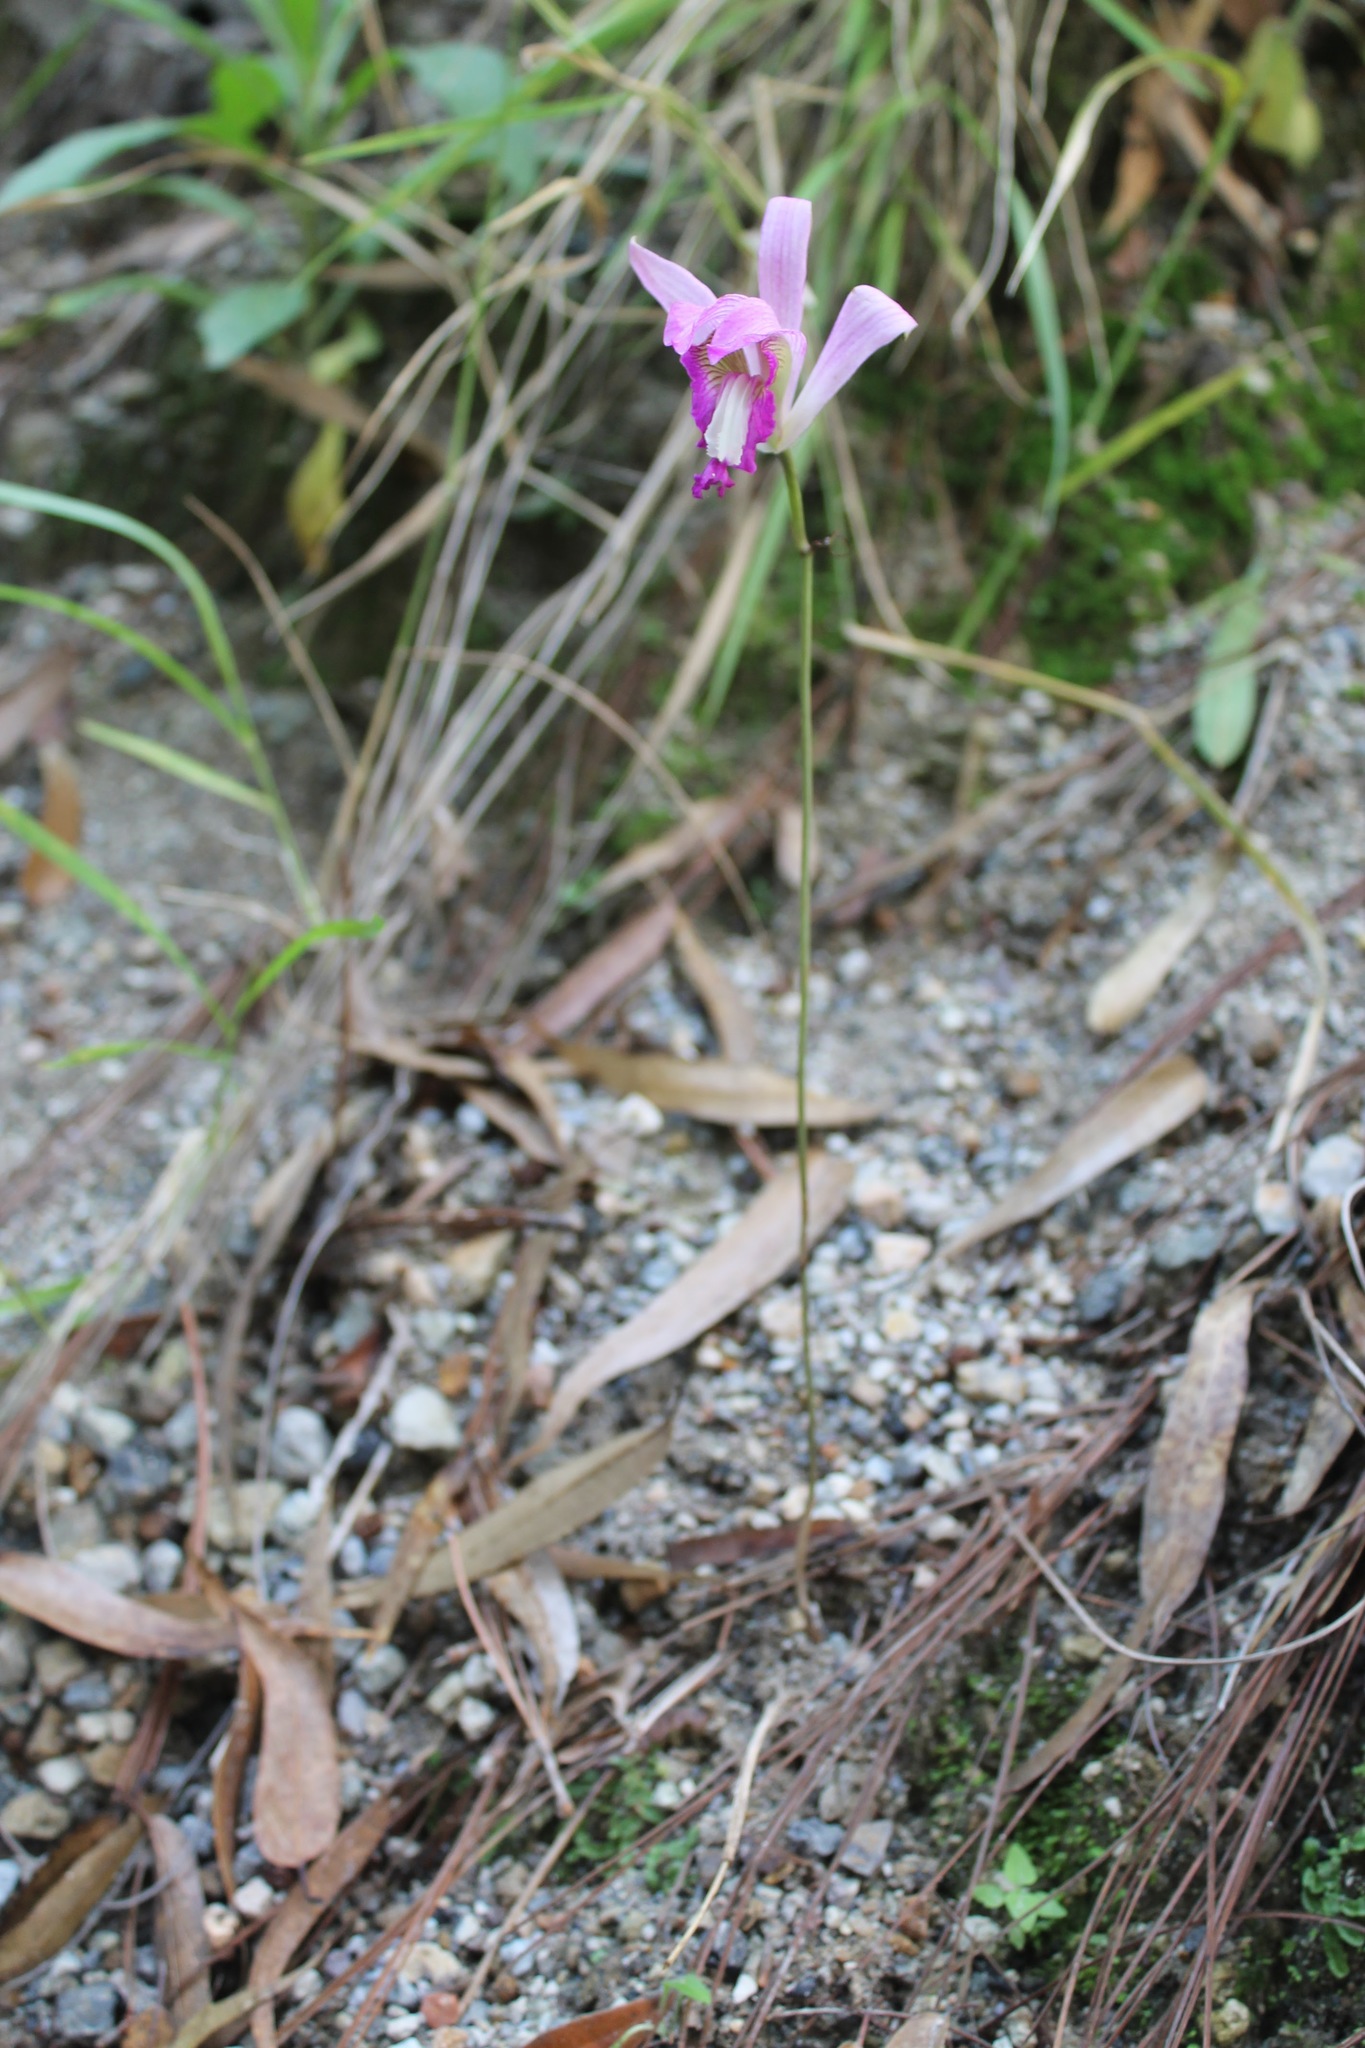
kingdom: Plantae
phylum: Tracheophyta
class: Liliopsida
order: Asparagales
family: Orchidaceae
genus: Bletia
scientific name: Bletia reflexa
